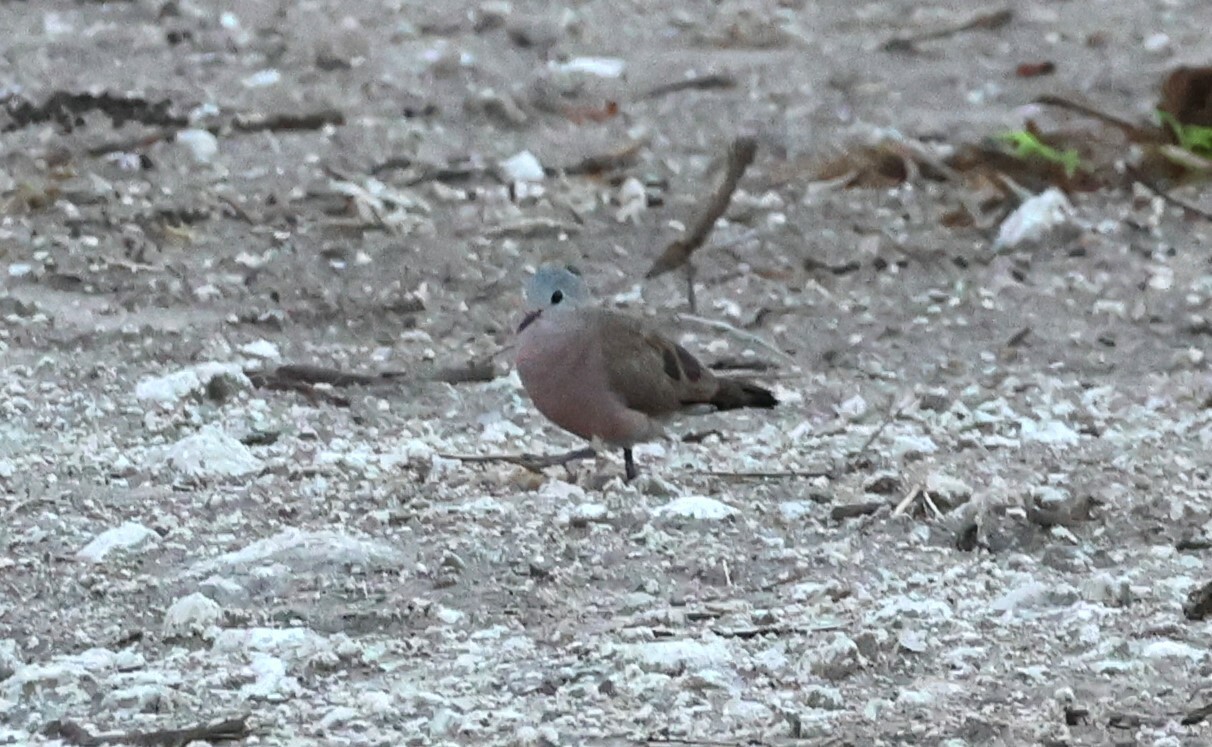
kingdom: Animalia
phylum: Chordata
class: Aves
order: Columbiformes
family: Columbidae
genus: Turtur
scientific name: Turtur chalcospilos
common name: Emerald-spotted wood dove
